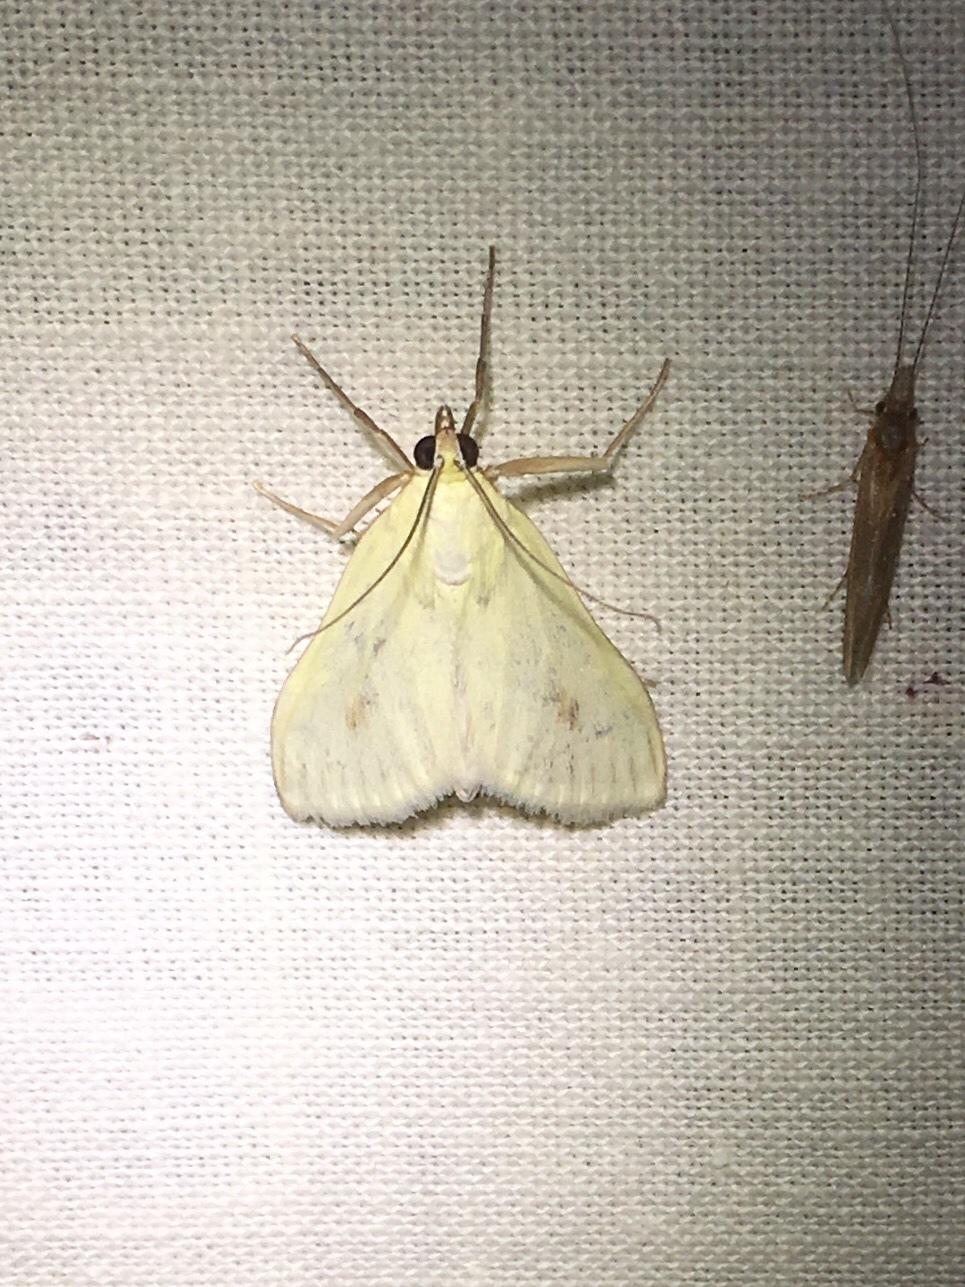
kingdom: Animalia
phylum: Arthropoda
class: Insecta
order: Lepidoptera
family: Crambidae
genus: Sitochroa
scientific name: Sitochroa palealis
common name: Greenish-yellow sitochroa moth
